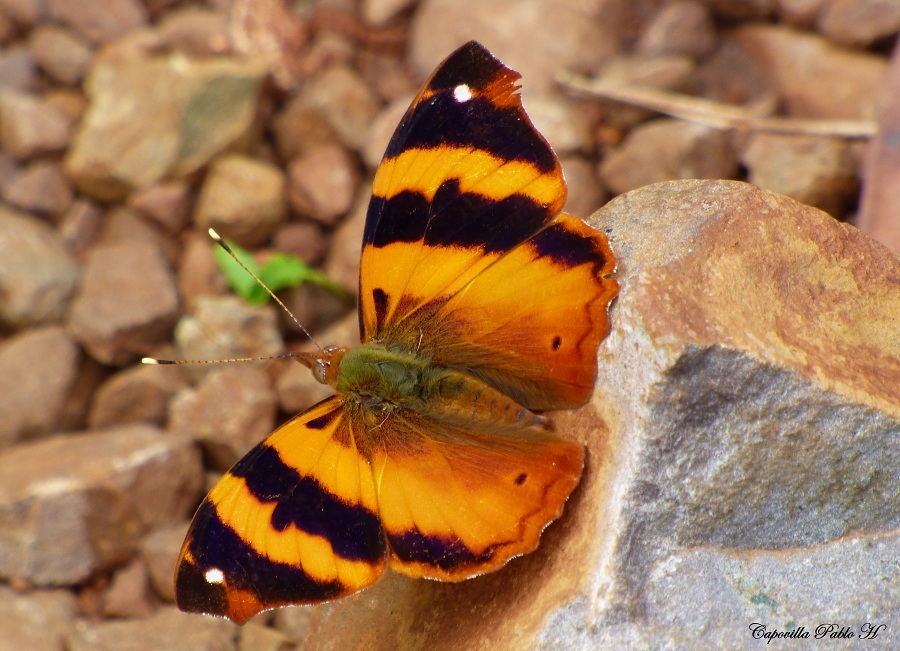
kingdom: Animalia
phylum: Arthropoda
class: Insecta
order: Lepidoptera
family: Nymphalidae
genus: Epiphile
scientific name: Epiphile hubneri
